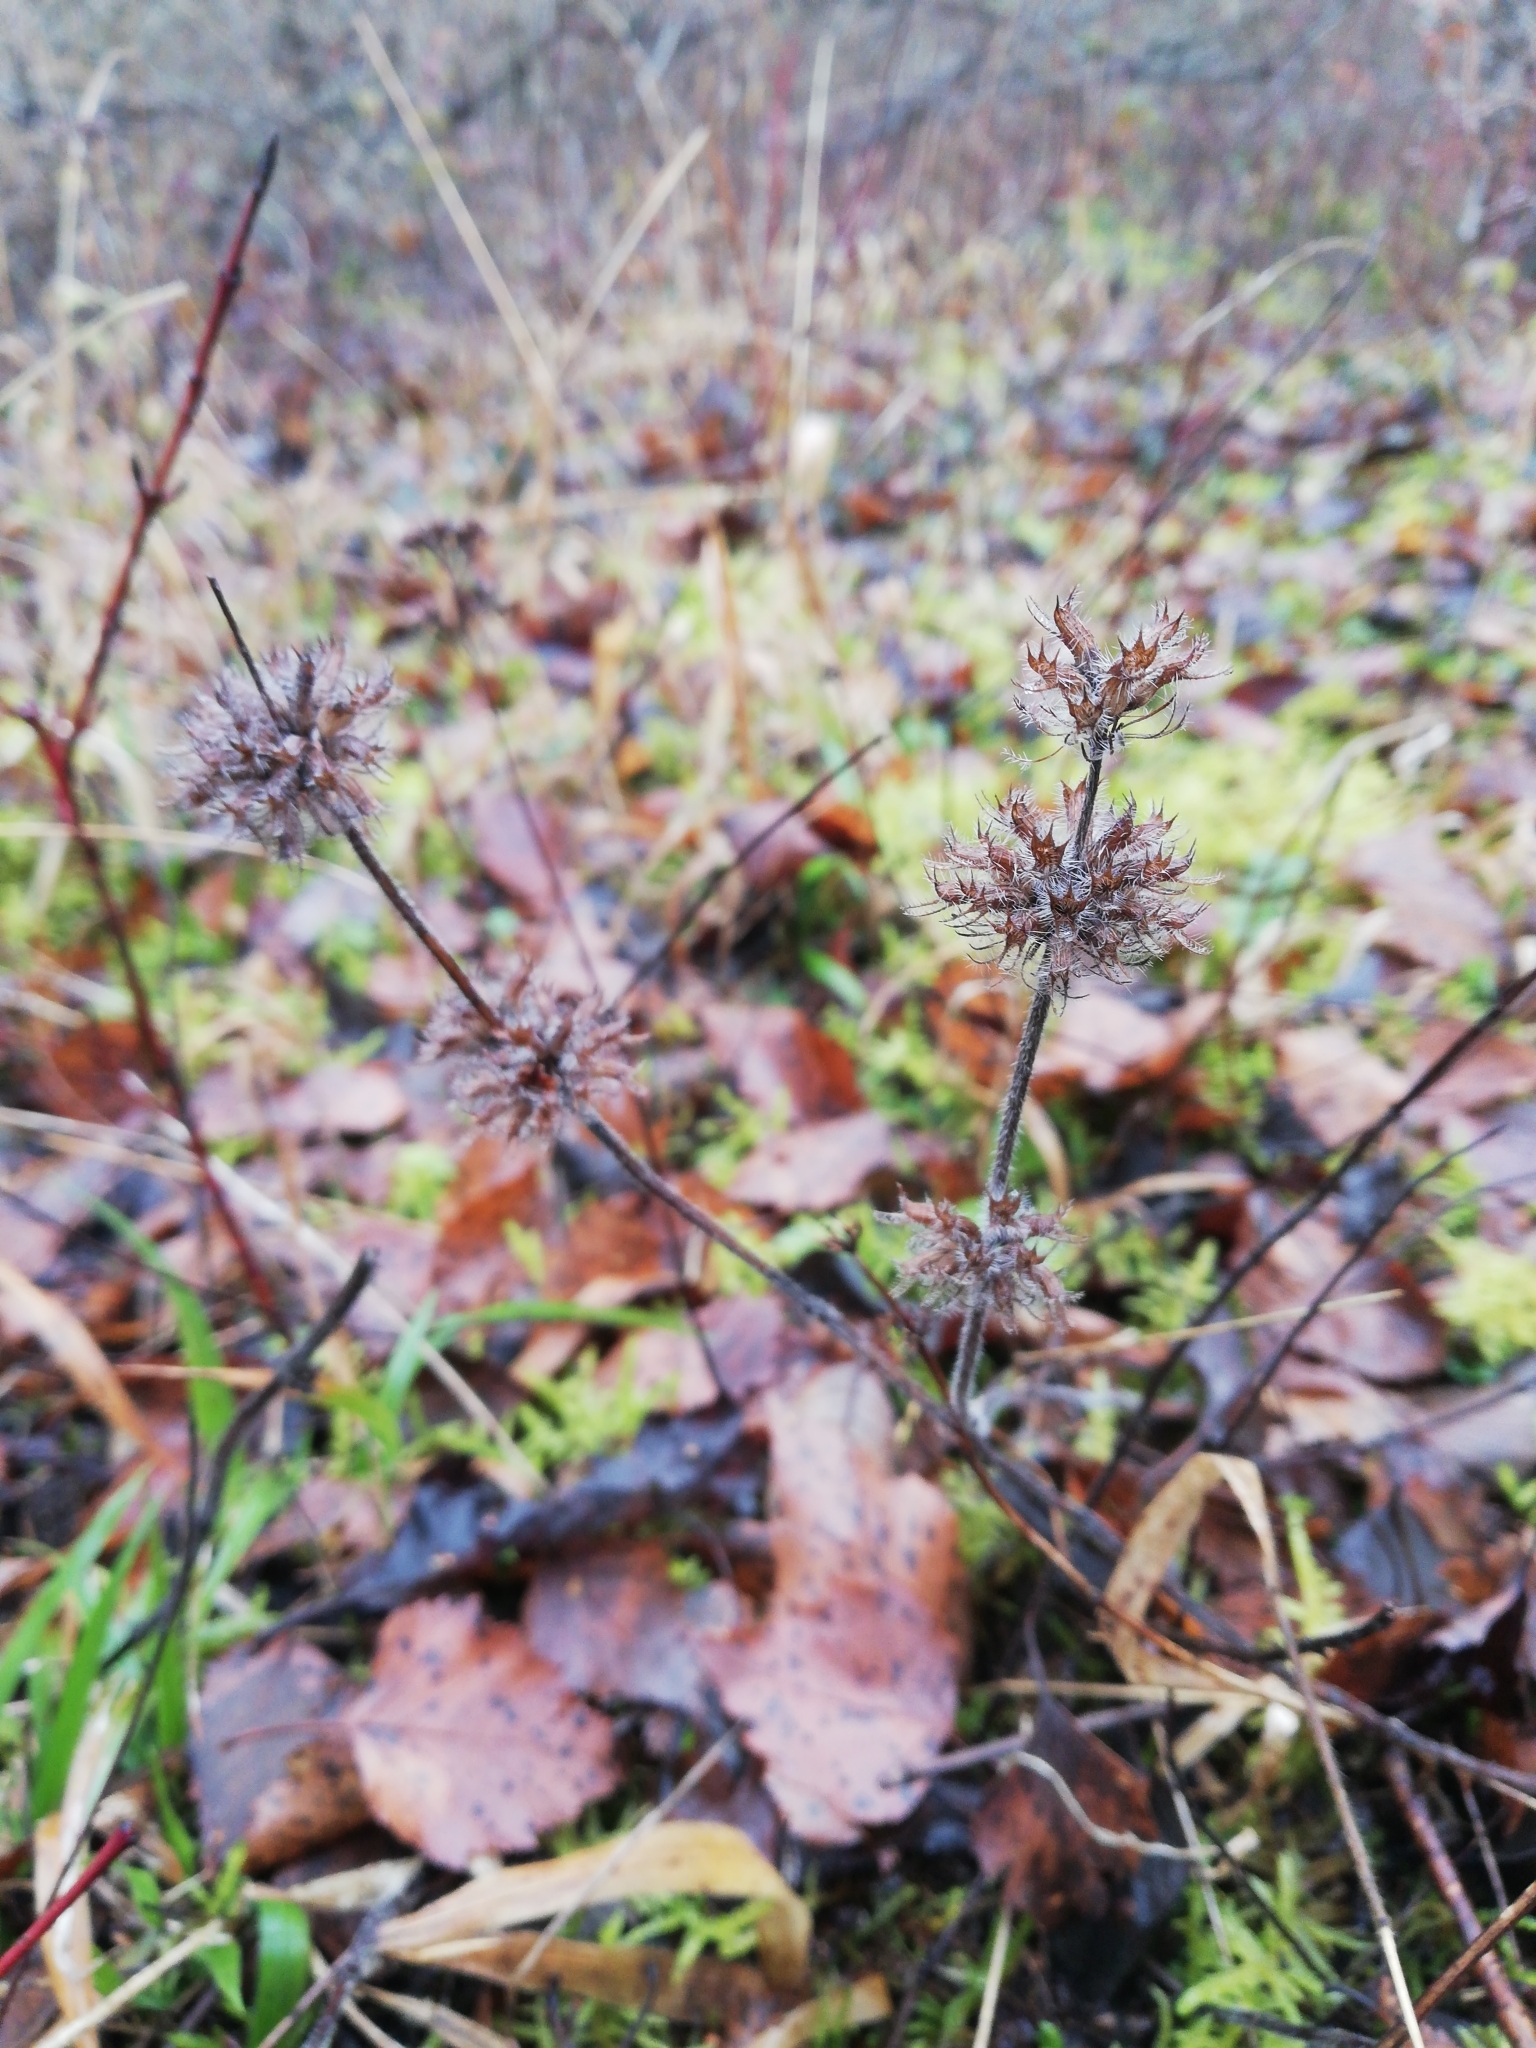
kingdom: Plantae
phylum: Tracheophyta
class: Magnoliopsida
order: Lamiales
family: Lamiaceae
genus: Clinopodium
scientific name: Clinopodium vulgare
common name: Wild basil
